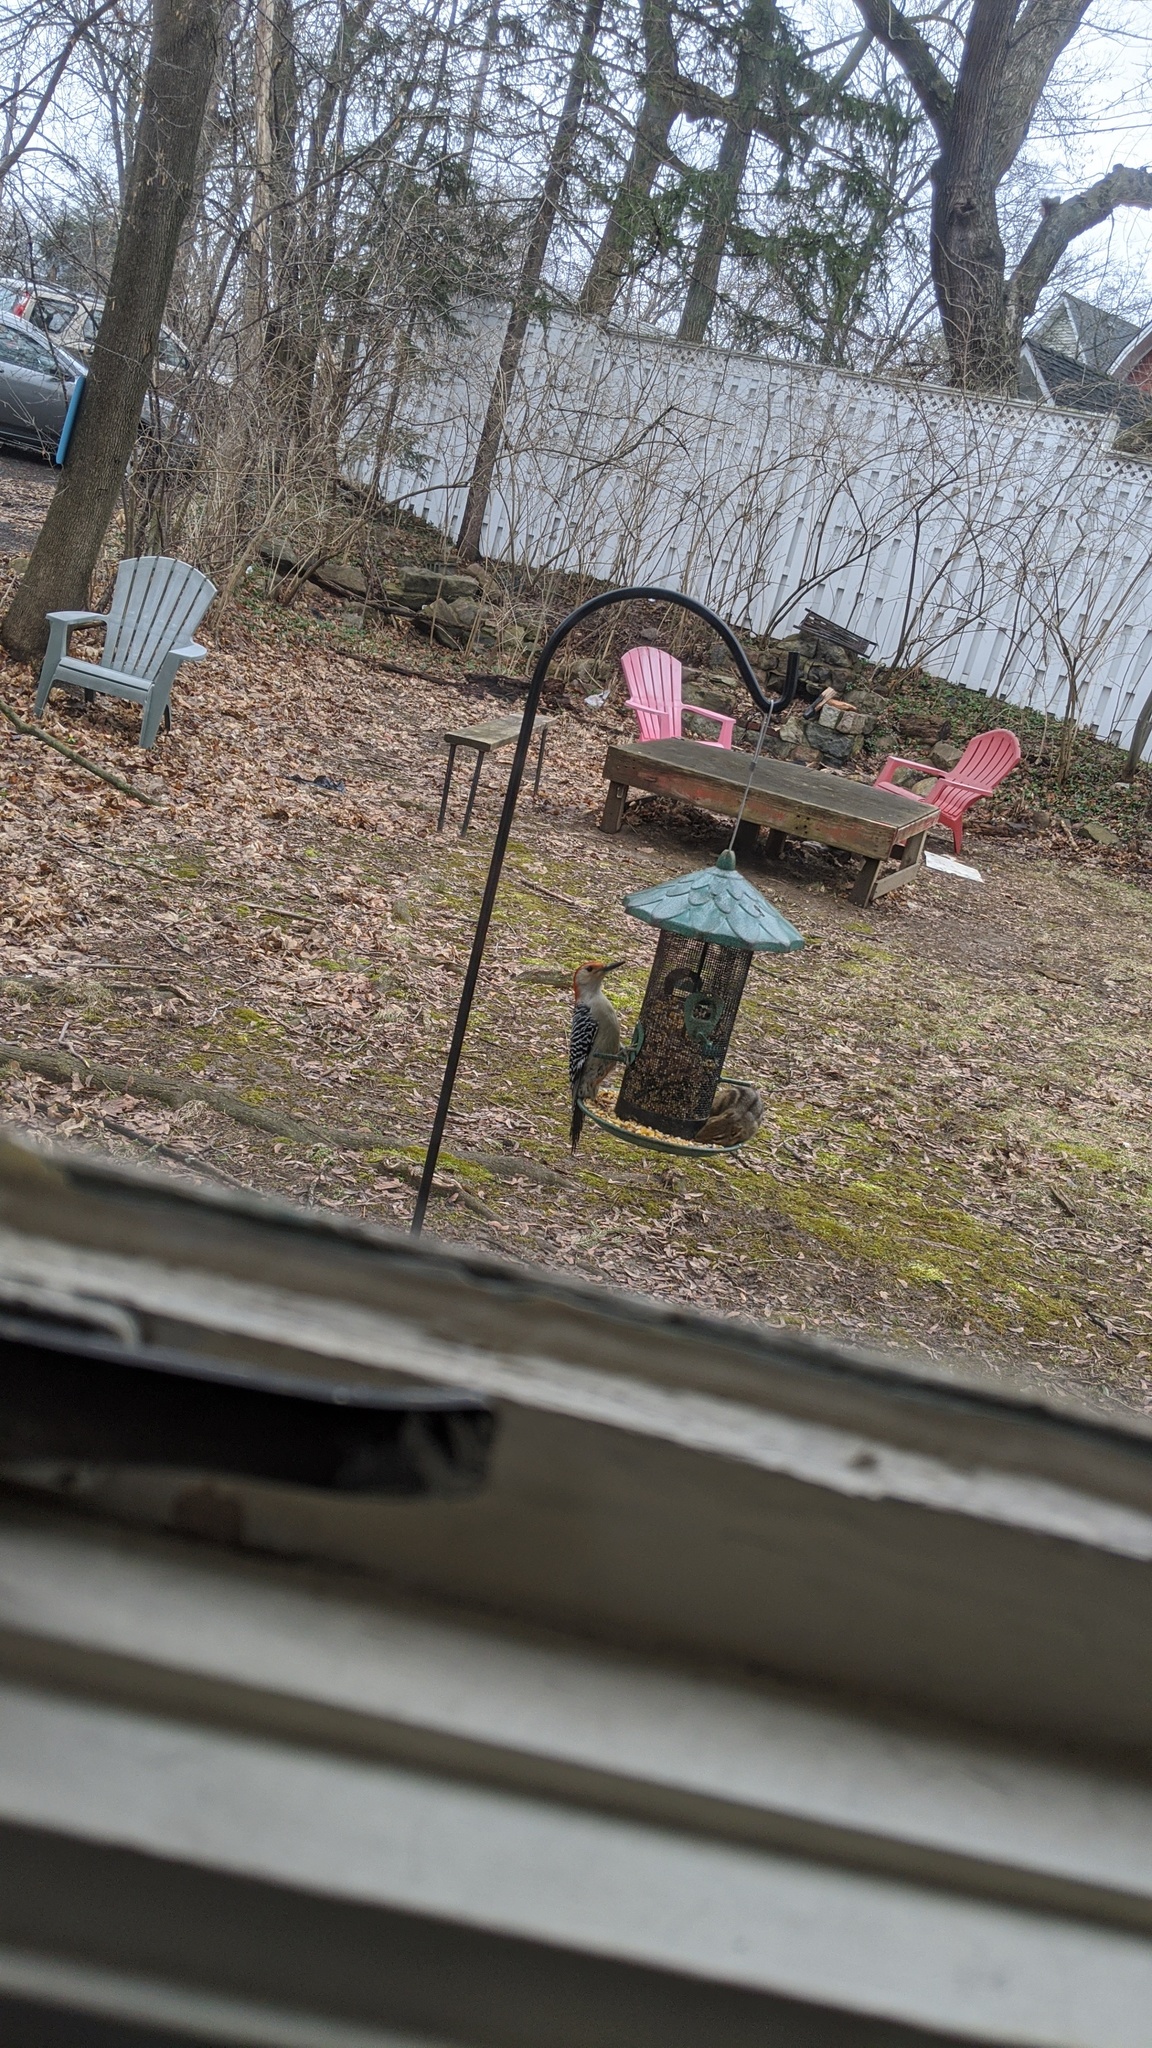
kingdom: Animalia
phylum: Chordata
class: Aves
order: Piciformes
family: Picidae
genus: Melanerpes
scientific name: Melanerpes carolinus
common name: Red-bellied woodpecker
